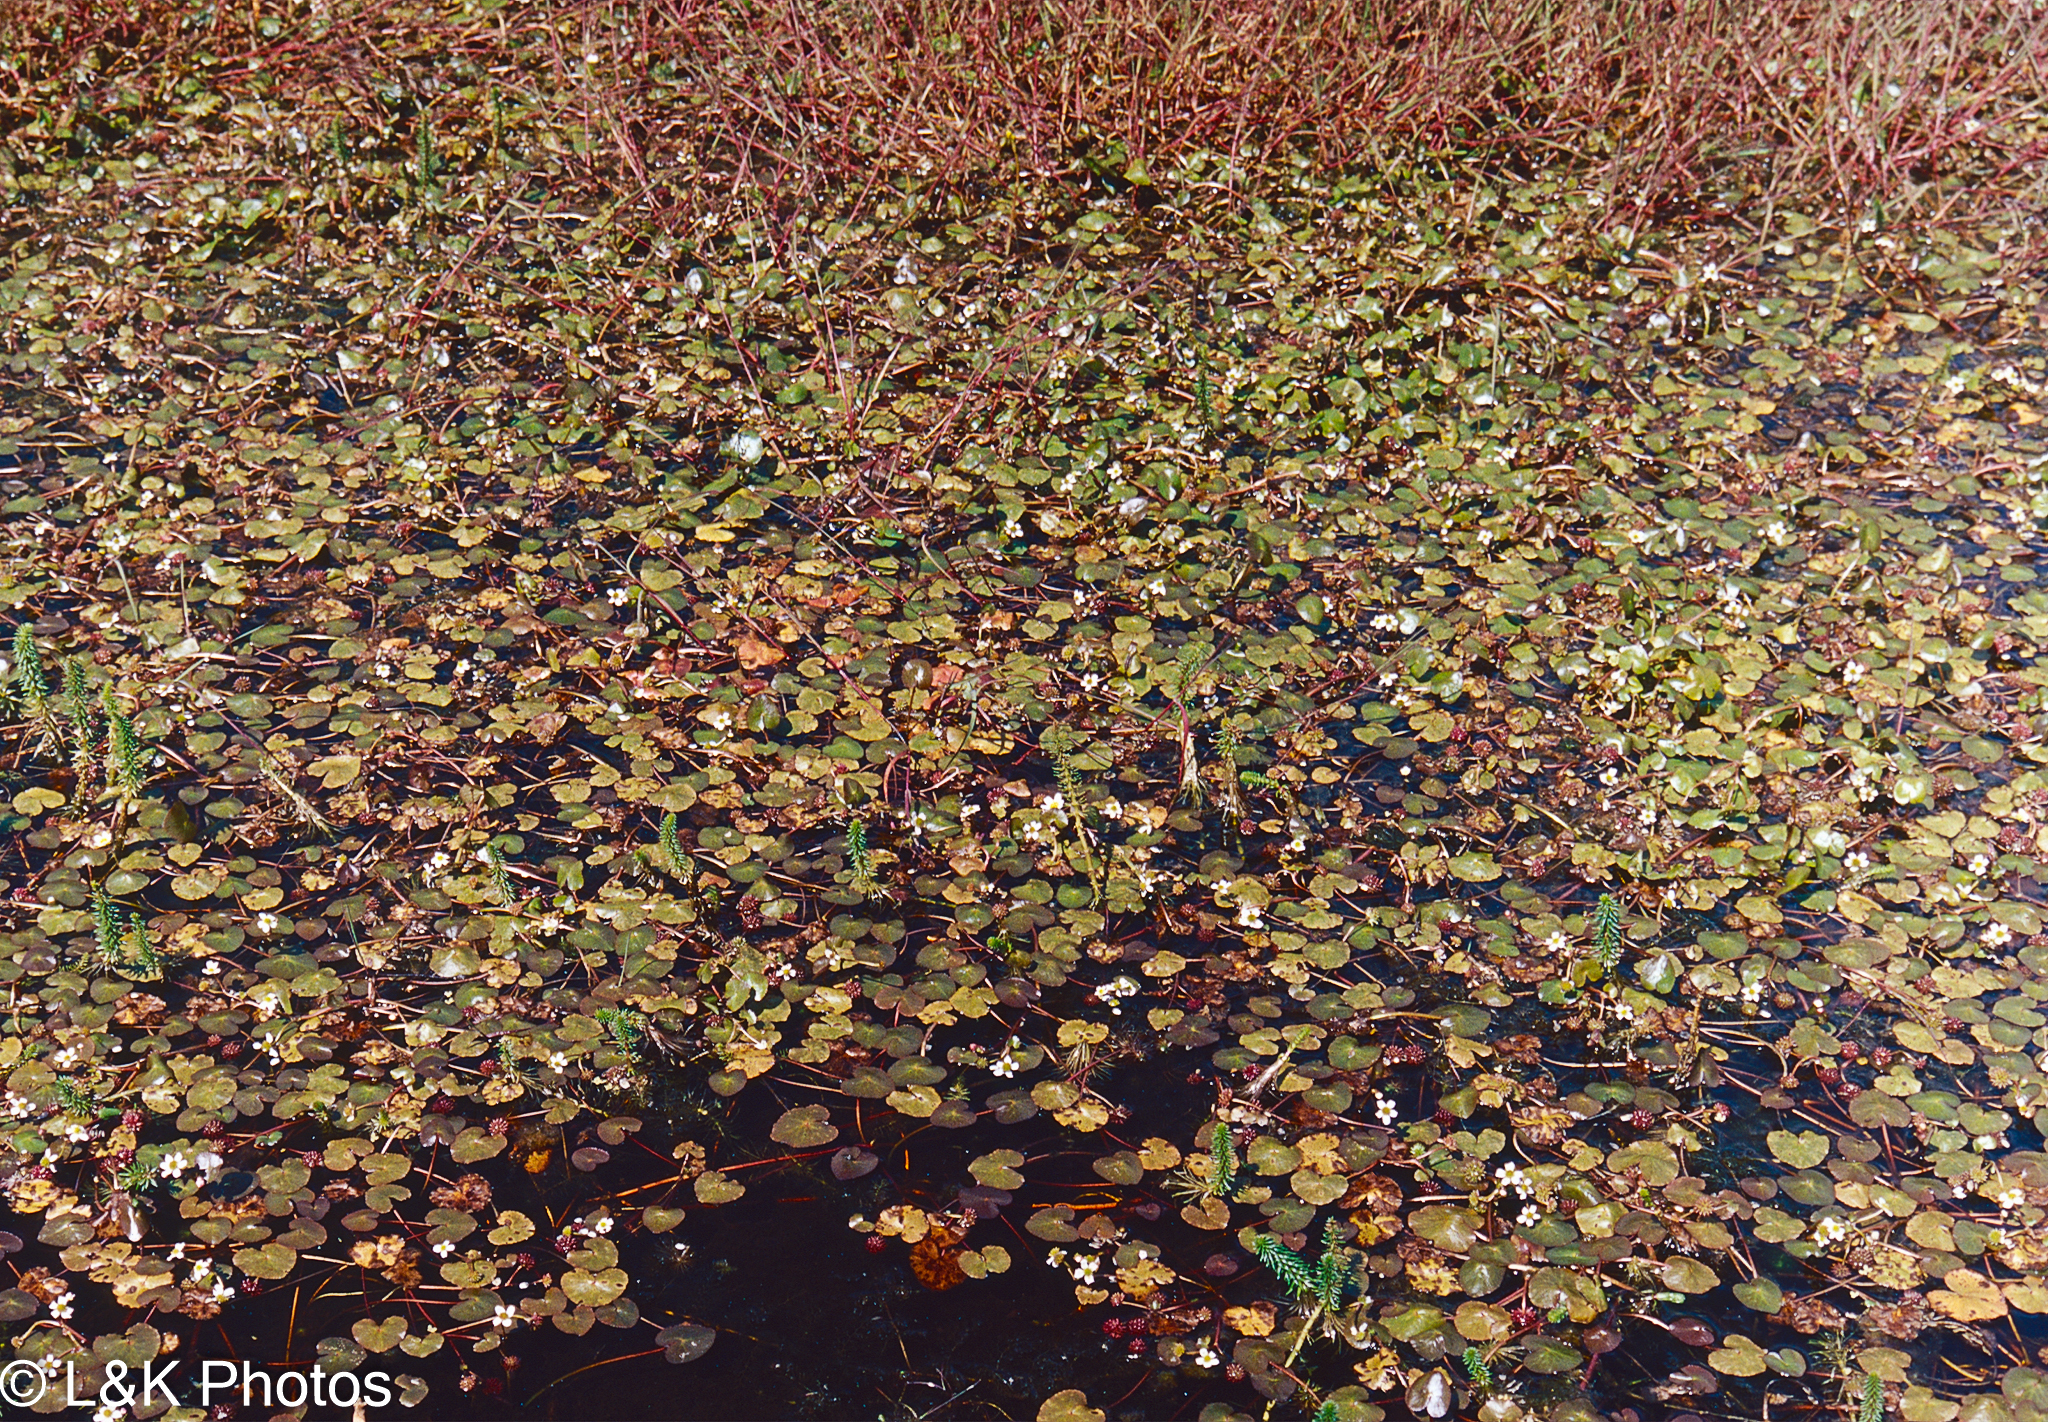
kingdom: Plantae
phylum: Tracheophyta
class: Magnoliopsida
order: Ranunculales
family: Ranunculaceae
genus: Caltha
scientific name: Caltha natans
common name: Floating marsh marigold
